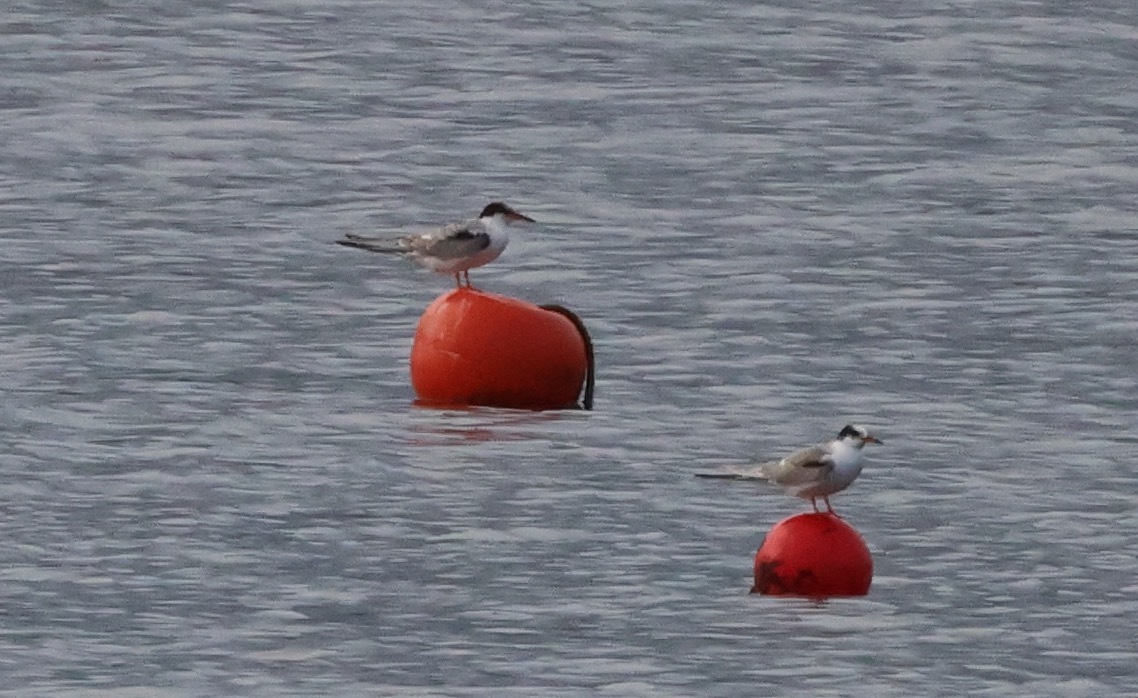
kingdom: Animalia
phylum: Chordata
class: Aves
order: Charadriiformes
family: Laridae
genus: Sterna
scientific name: Sterna hirundo
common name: Common tern
